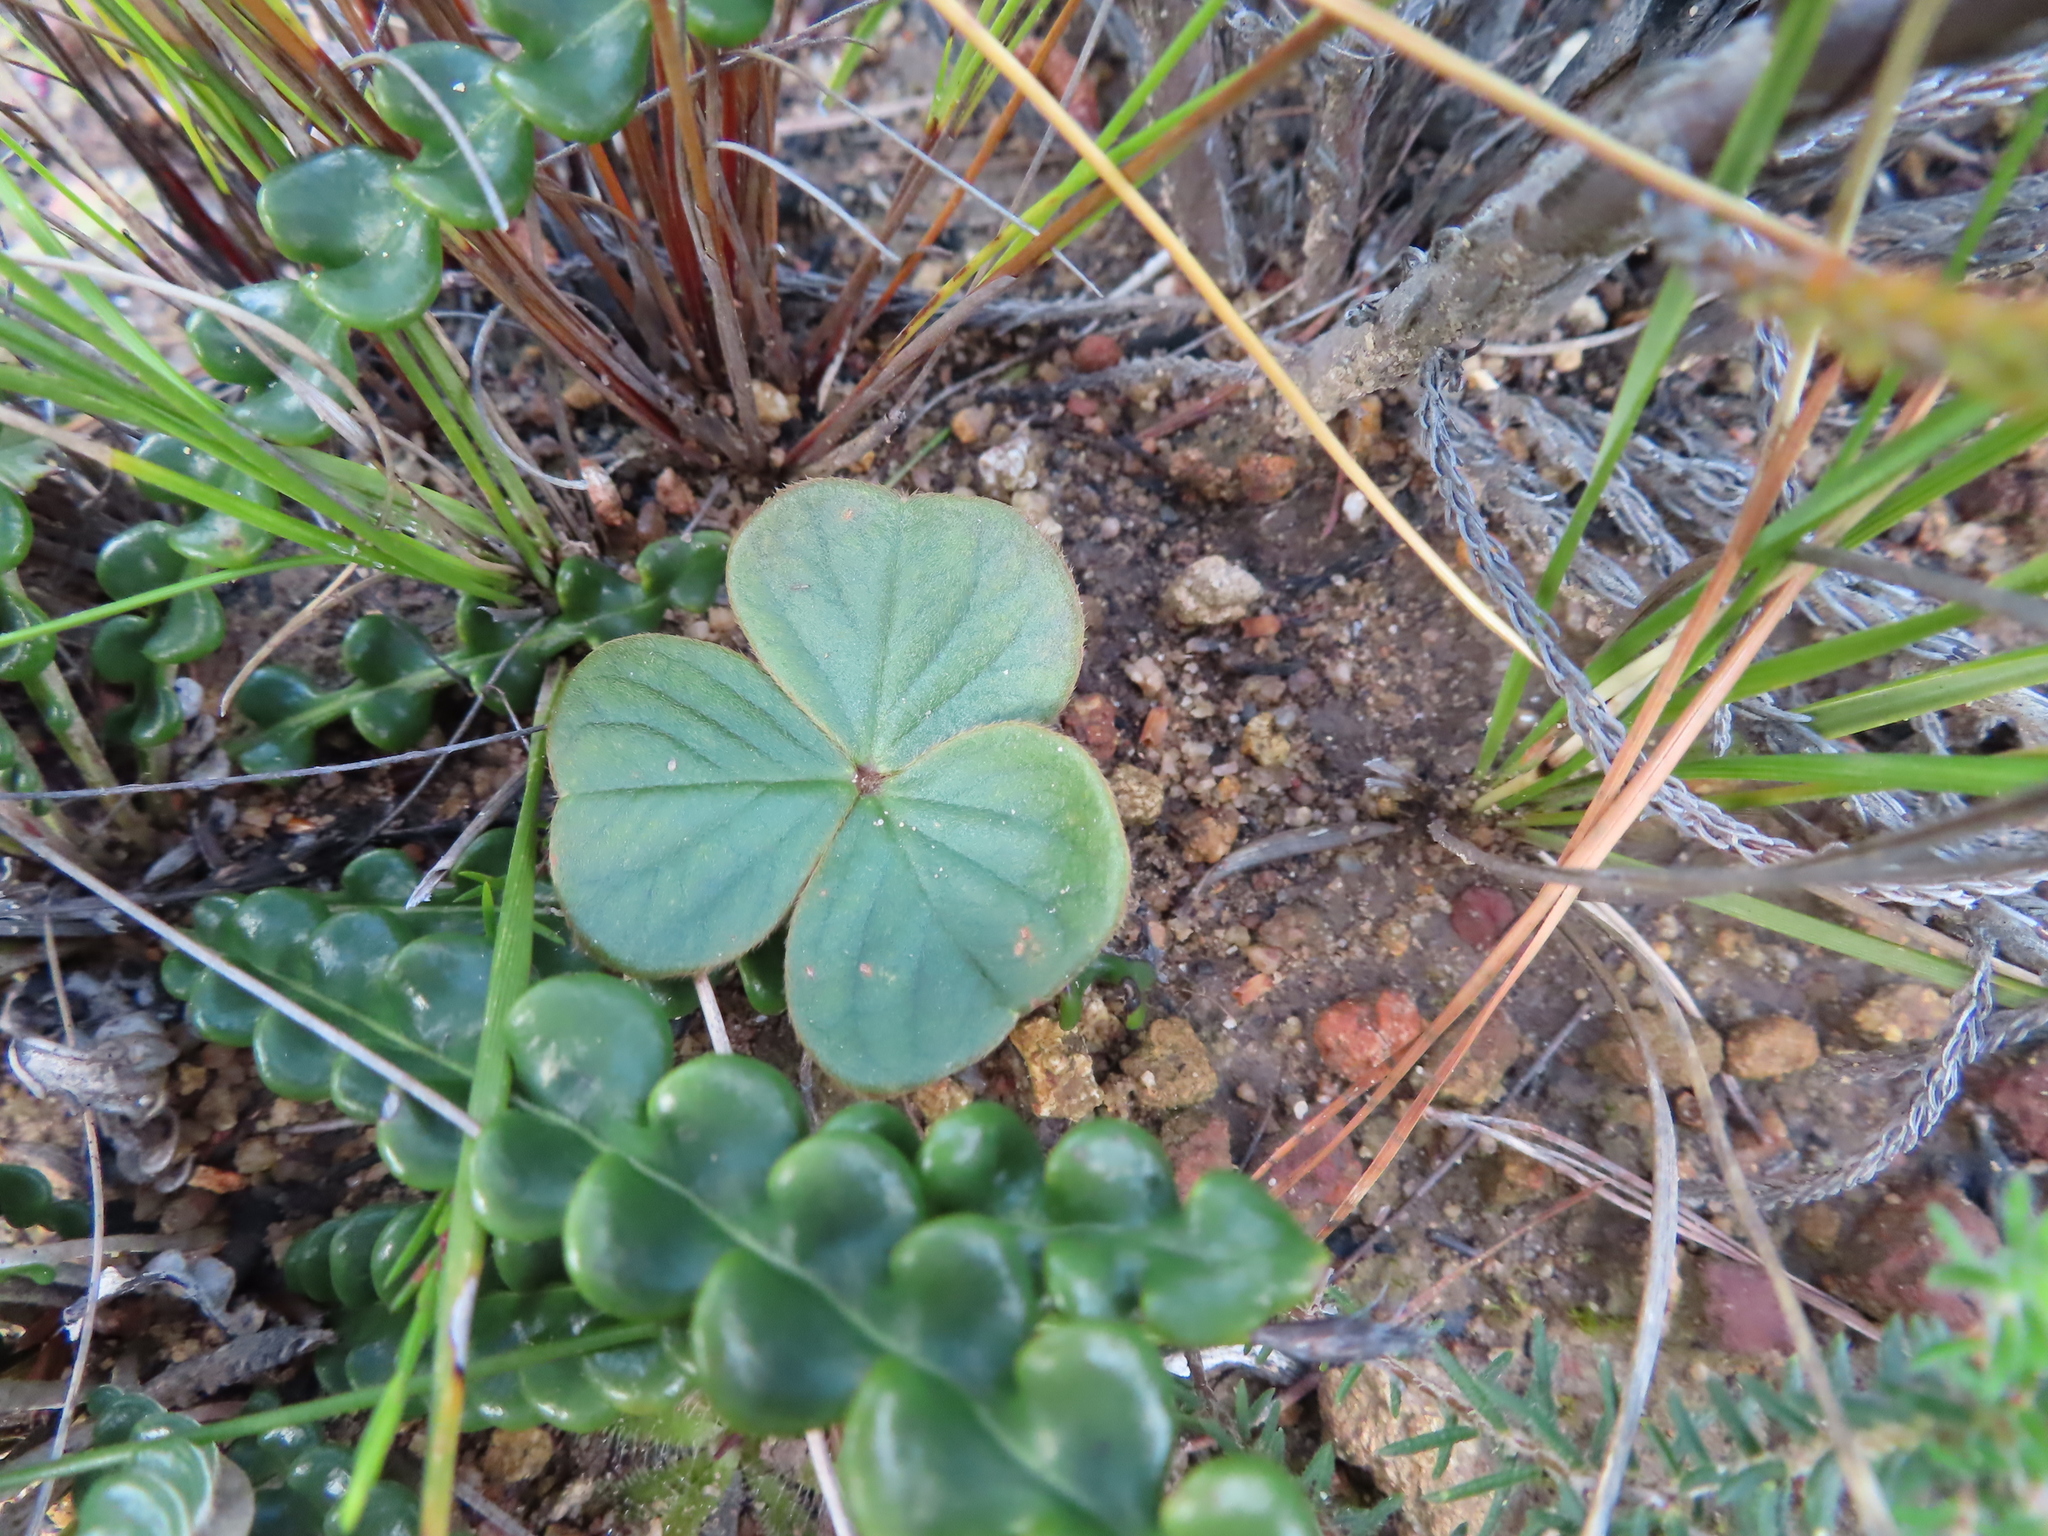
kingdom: Plantae
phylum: Tracheophyta
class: Magnoliopsida
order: Oxalidales
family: Oxalidaceae
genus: Oxalis
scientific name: Oxalis truncatula
